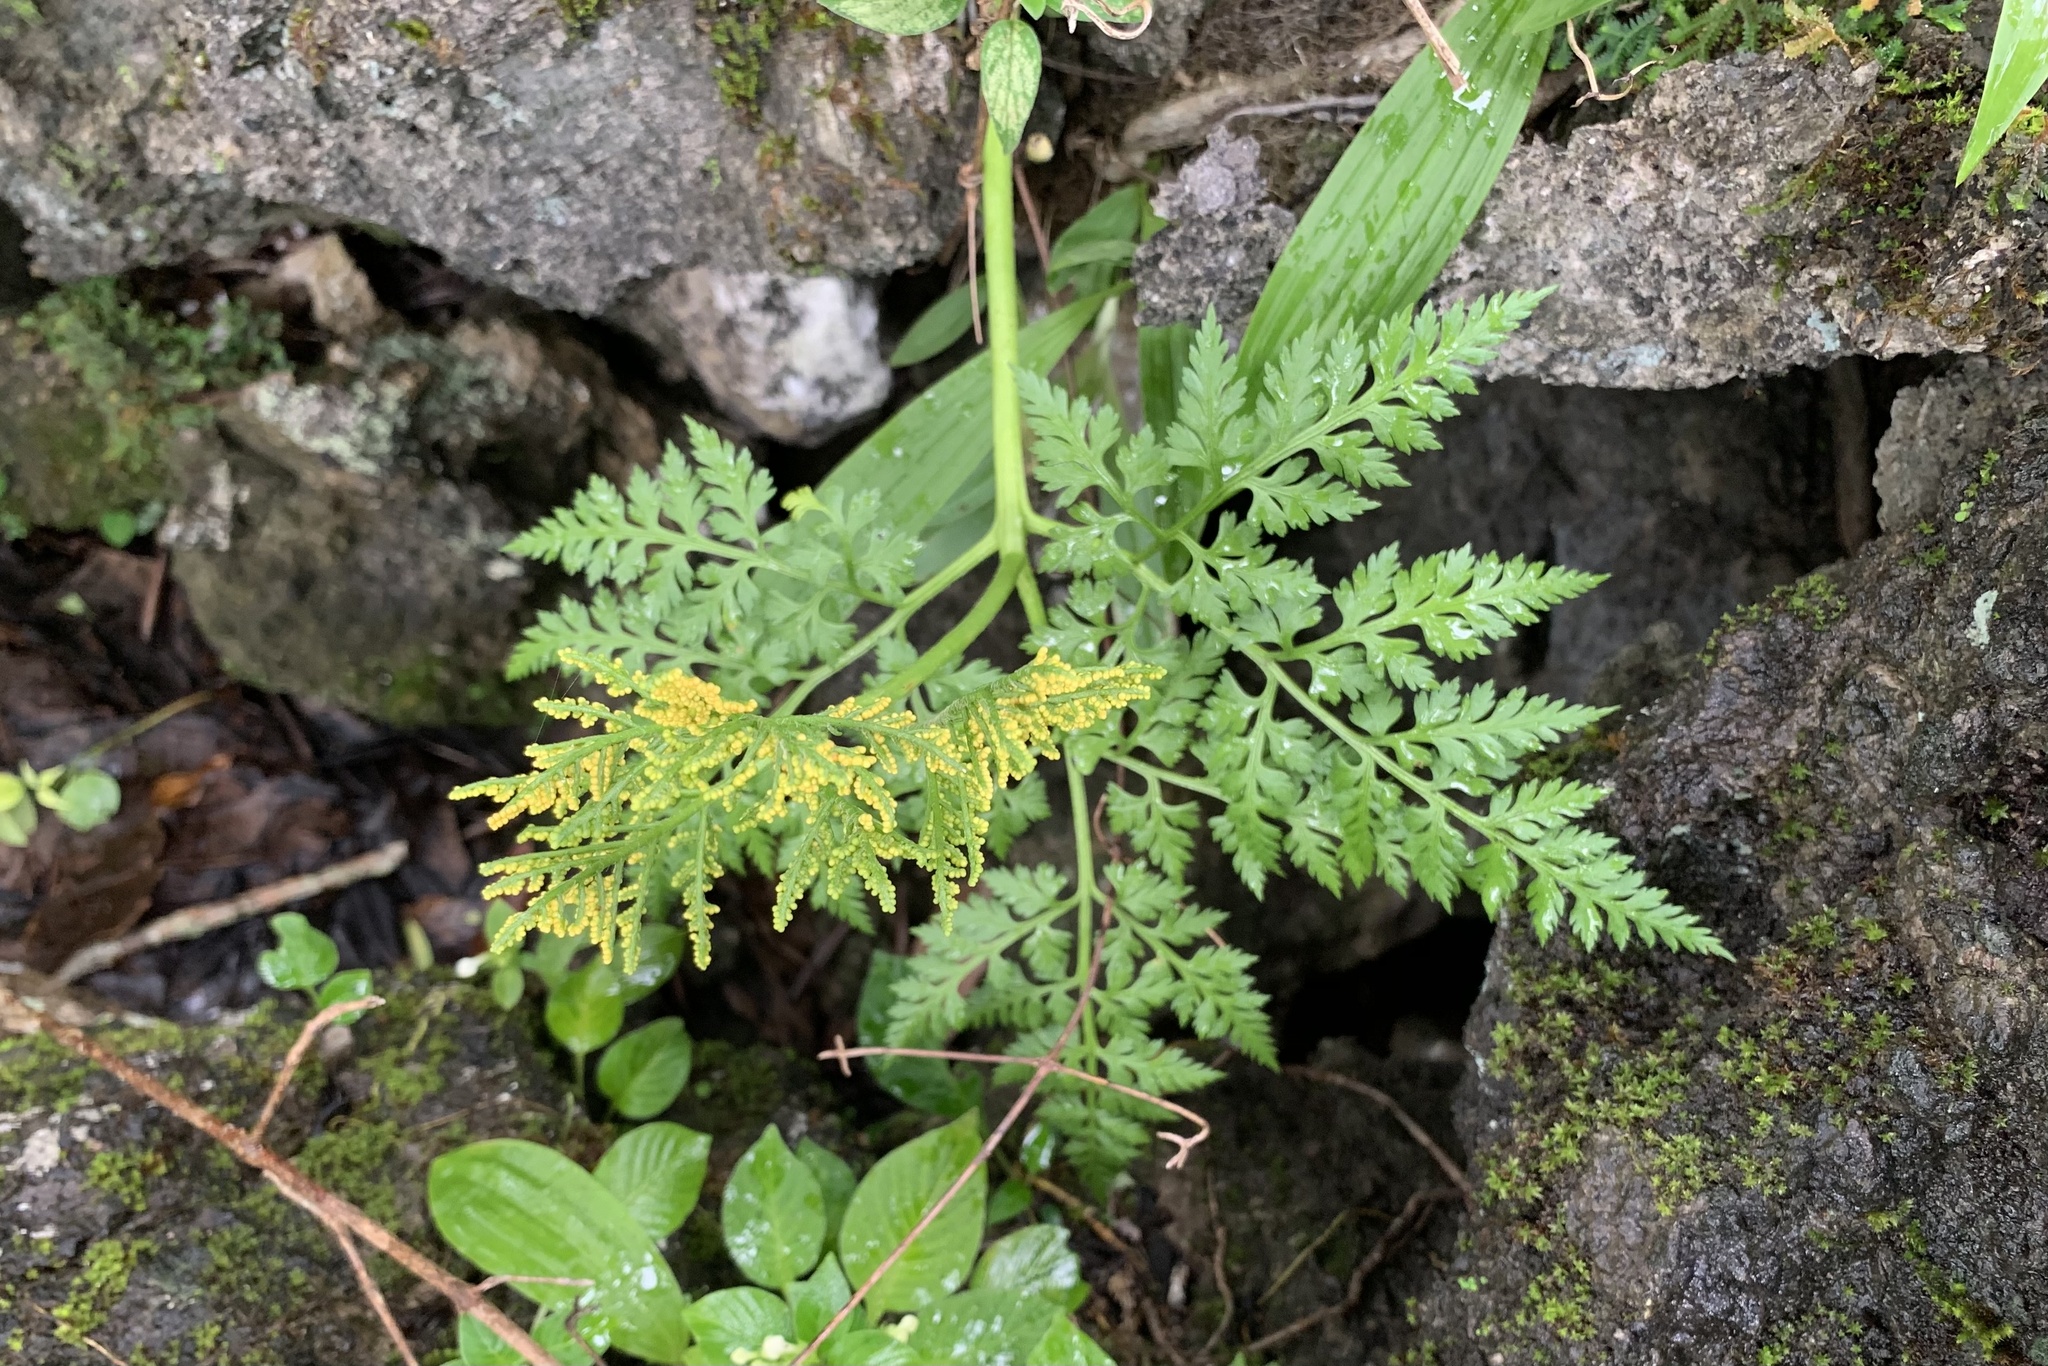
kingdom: Plantae
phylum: Tracheophyta
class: Polypodiopsida
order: Ophioglossales
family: Ophioglossaceae
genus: Japanobotrychum
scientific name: Japanobotrychum lanuginosum
